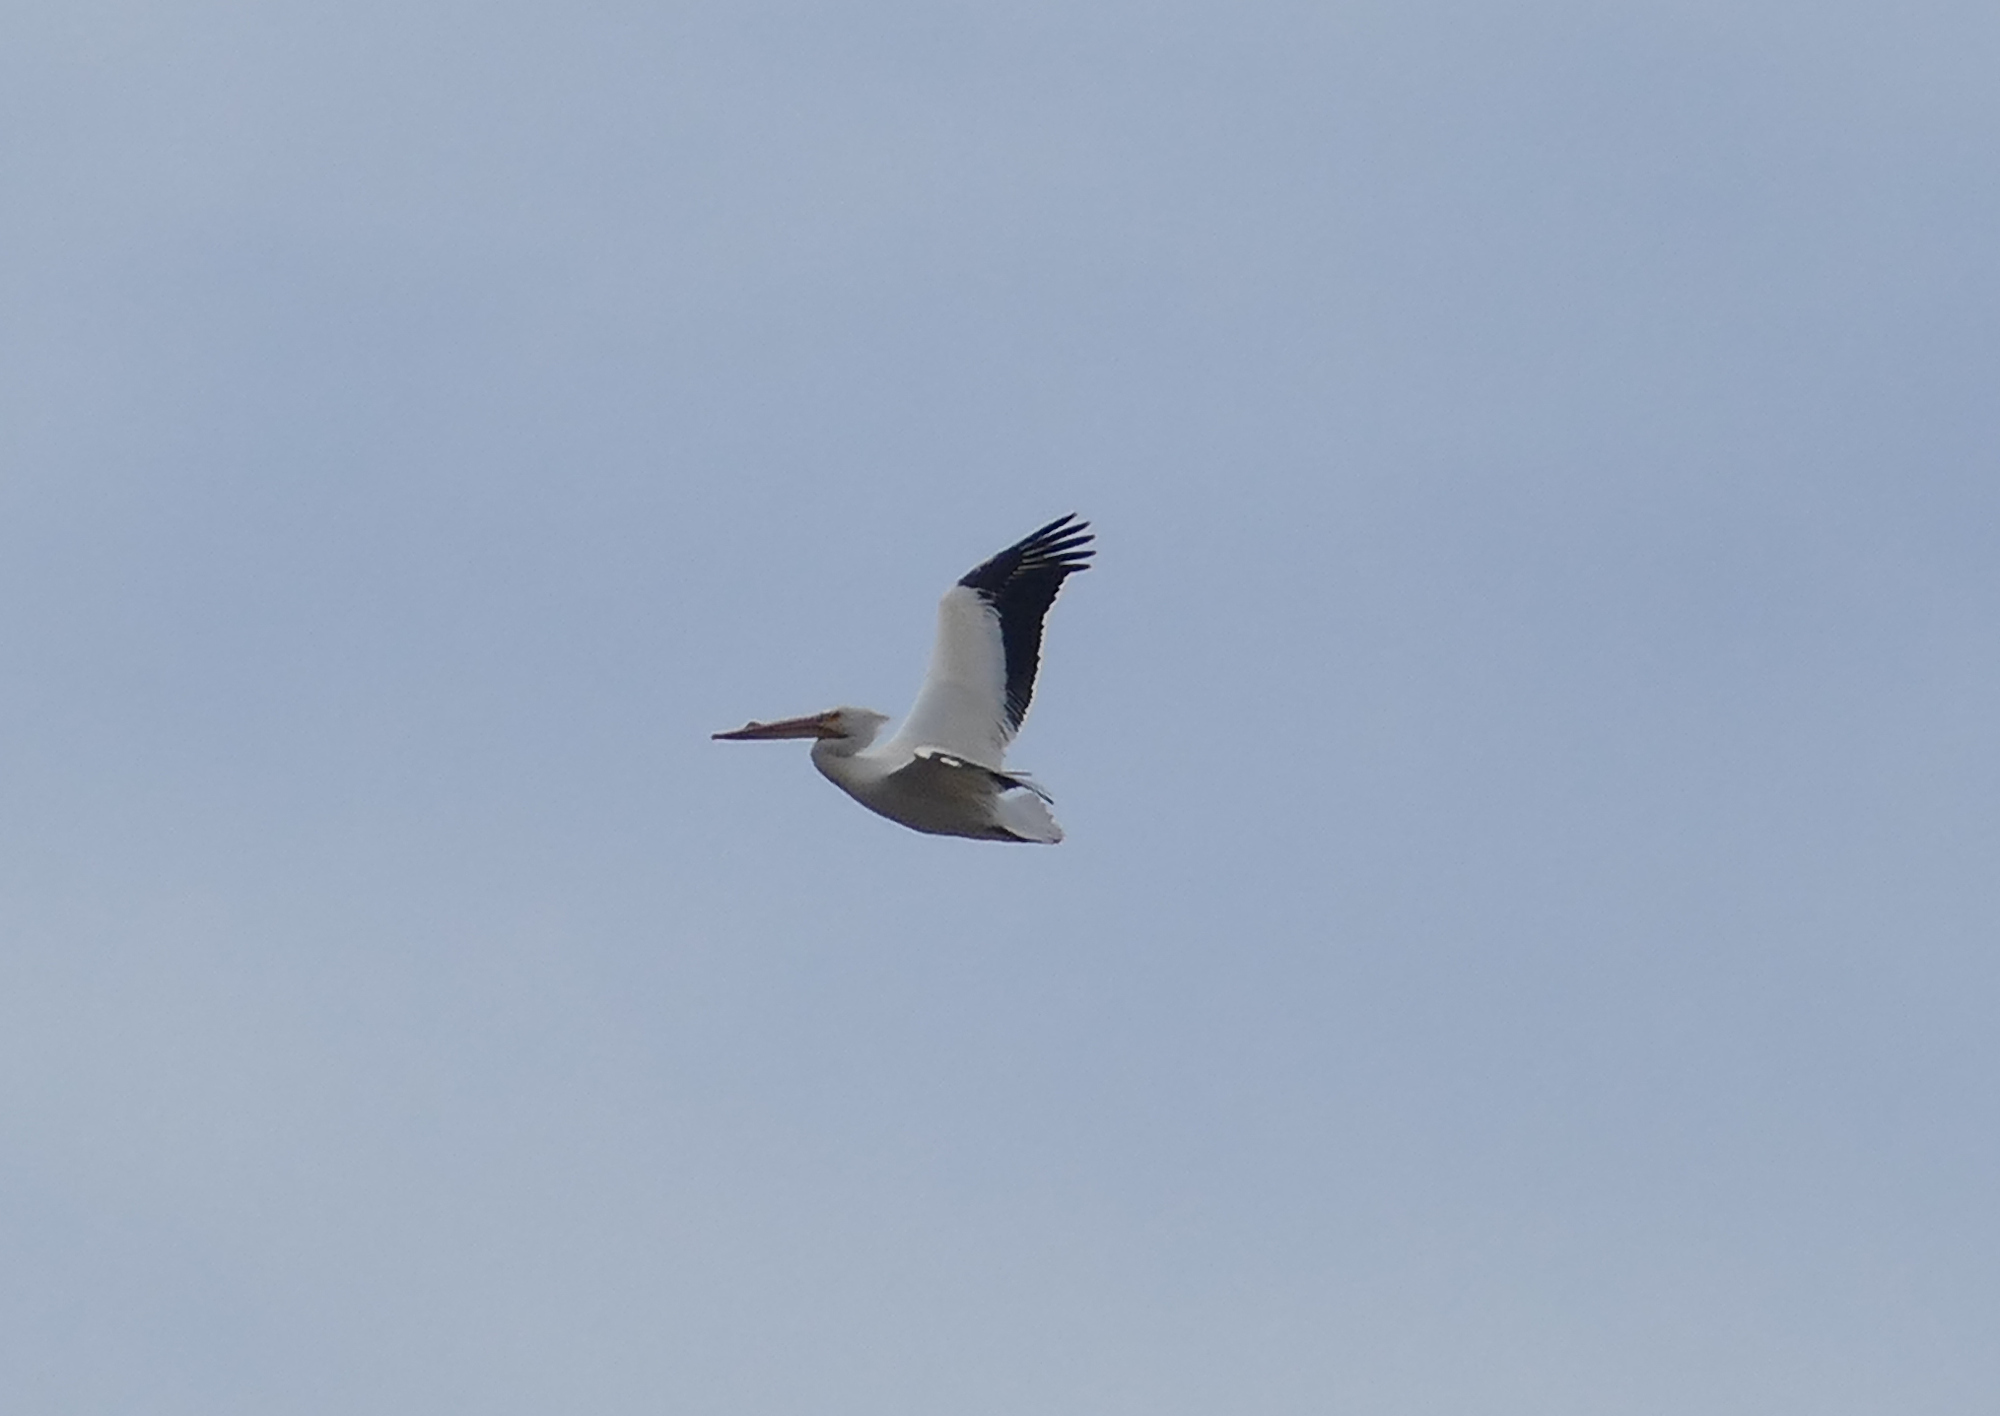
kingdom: Animalia
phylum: Chordata
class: Aves
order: Pelecaniformes
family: Pelecanidae
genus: Pelecanus
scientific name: Pelecanus erythrorhynchos
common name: American white pelican
